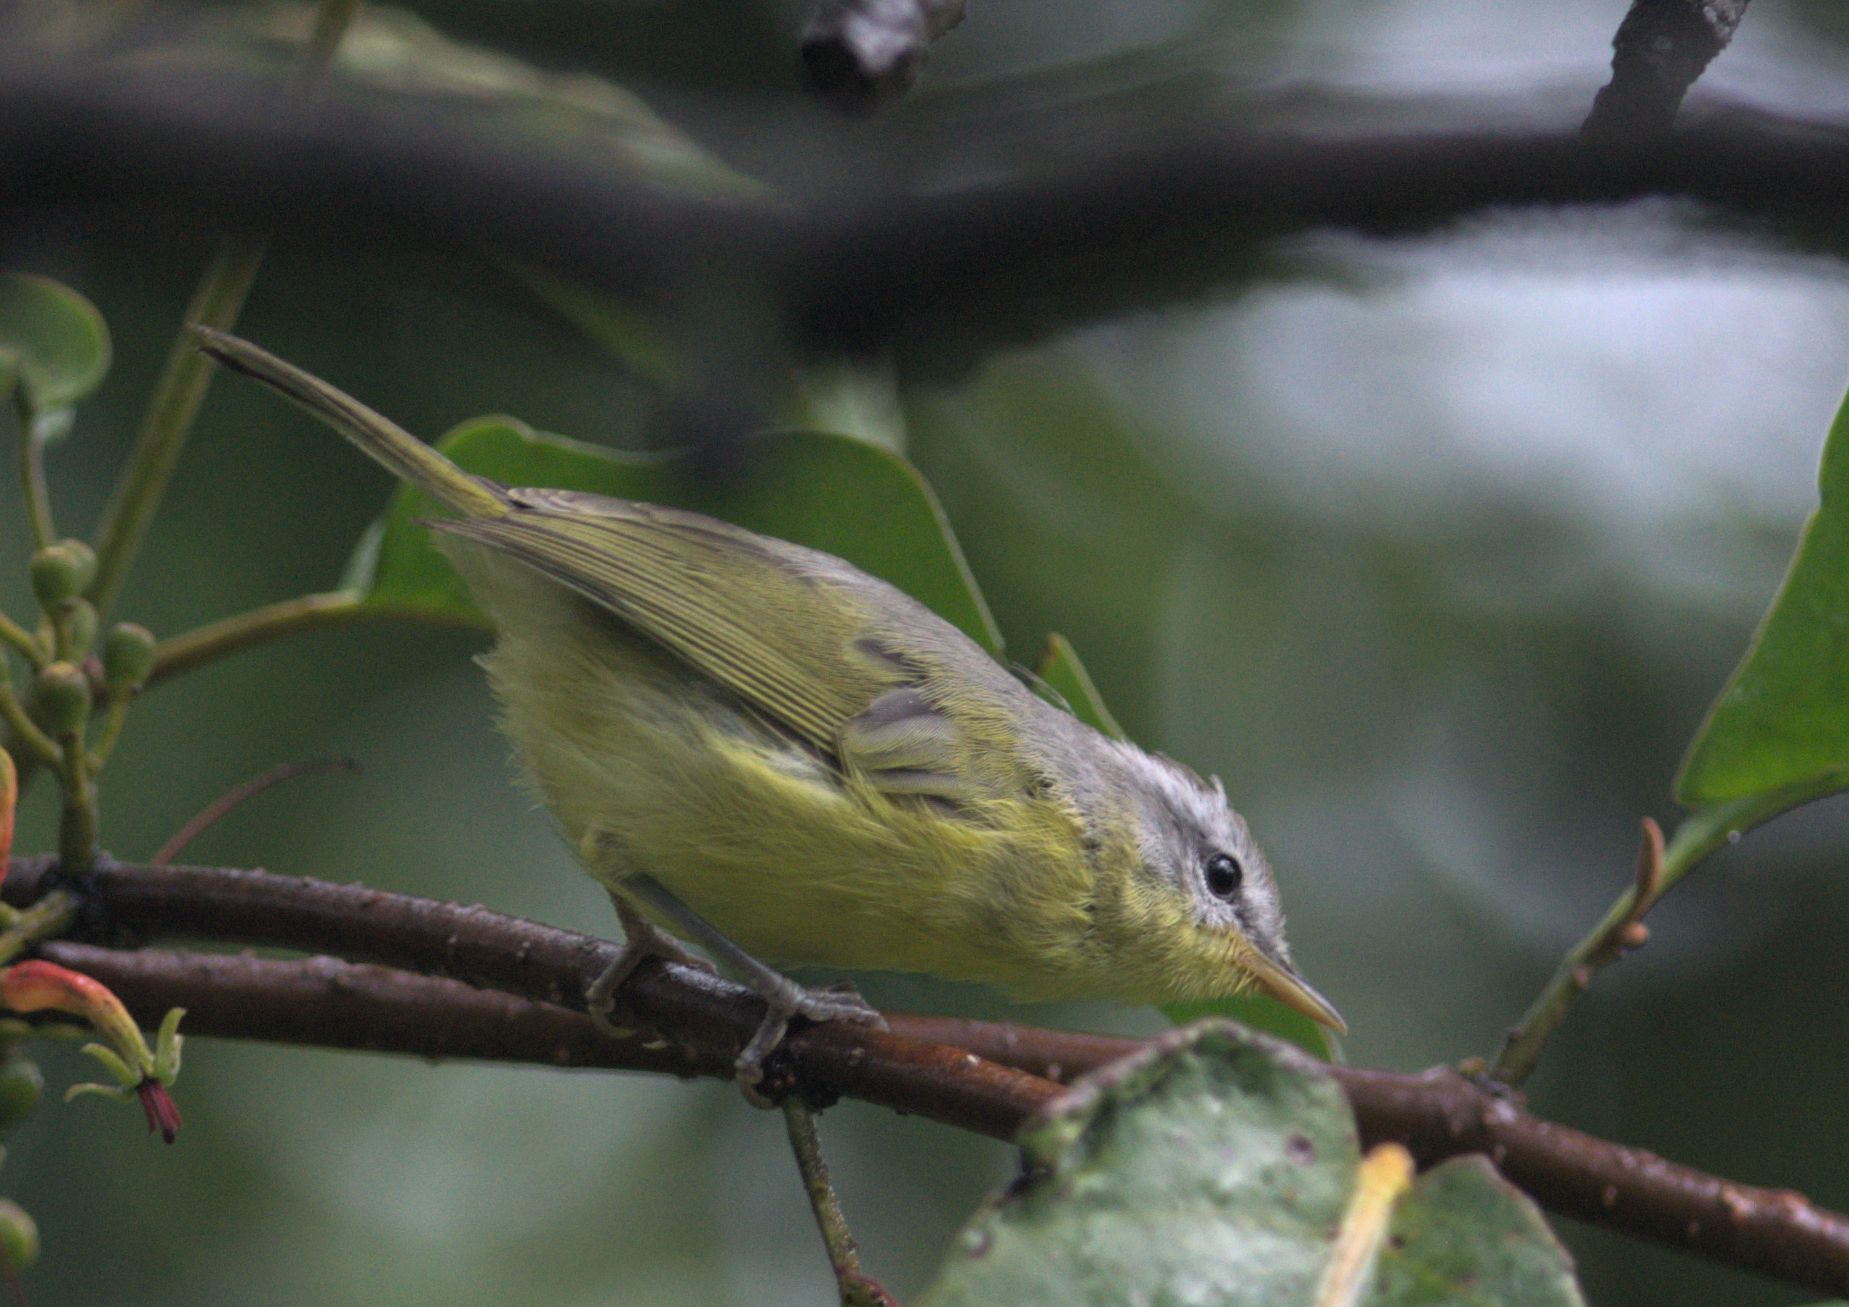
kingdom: Animalia
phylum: Chordata
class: Aves
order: Passeriformes
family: Phylloscopidae
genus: Phylloscopus
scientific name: Phylloscopus xanthoschistos
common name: Grey-hooded warbler
